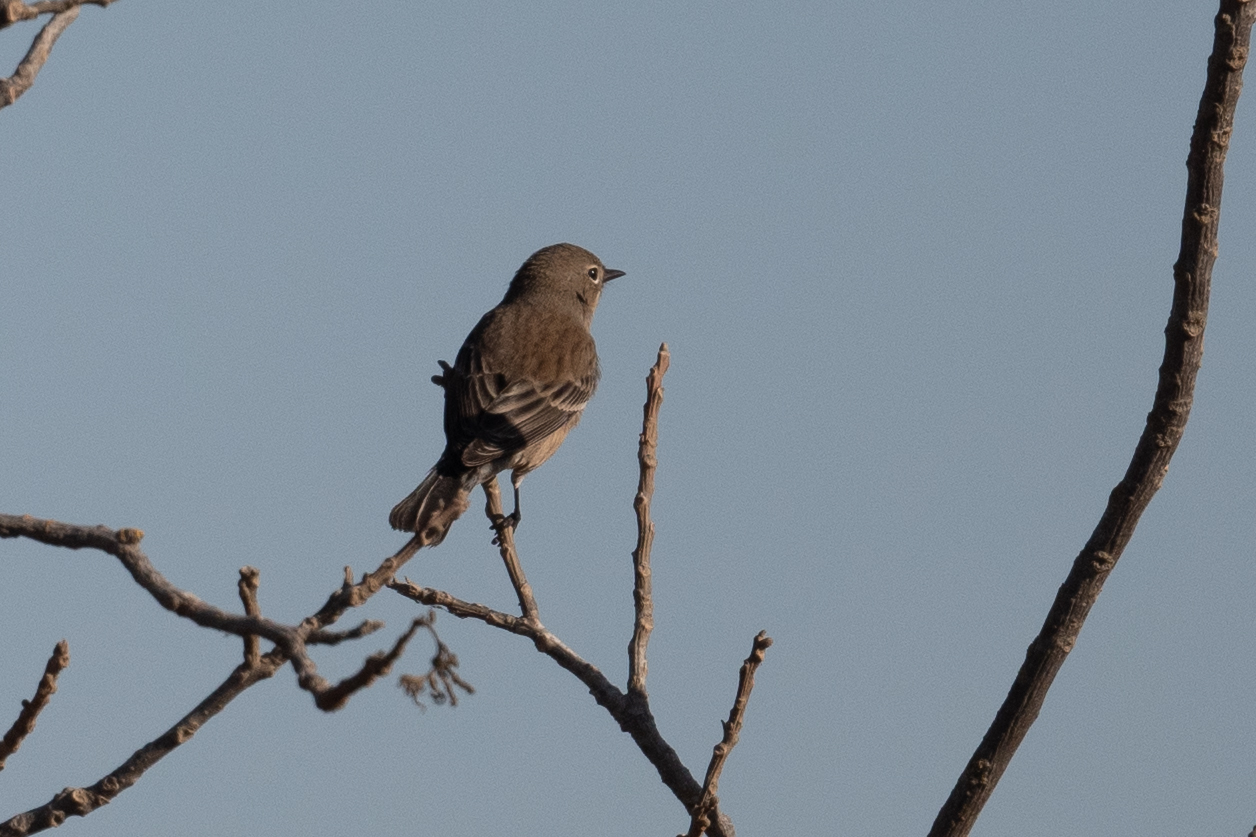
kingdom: Animalia
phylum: Chordata
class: Aves
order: Passeriformes
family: Parulidae
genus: Setophaga
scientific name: Setophaga coronata
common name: Myrtle warbler
